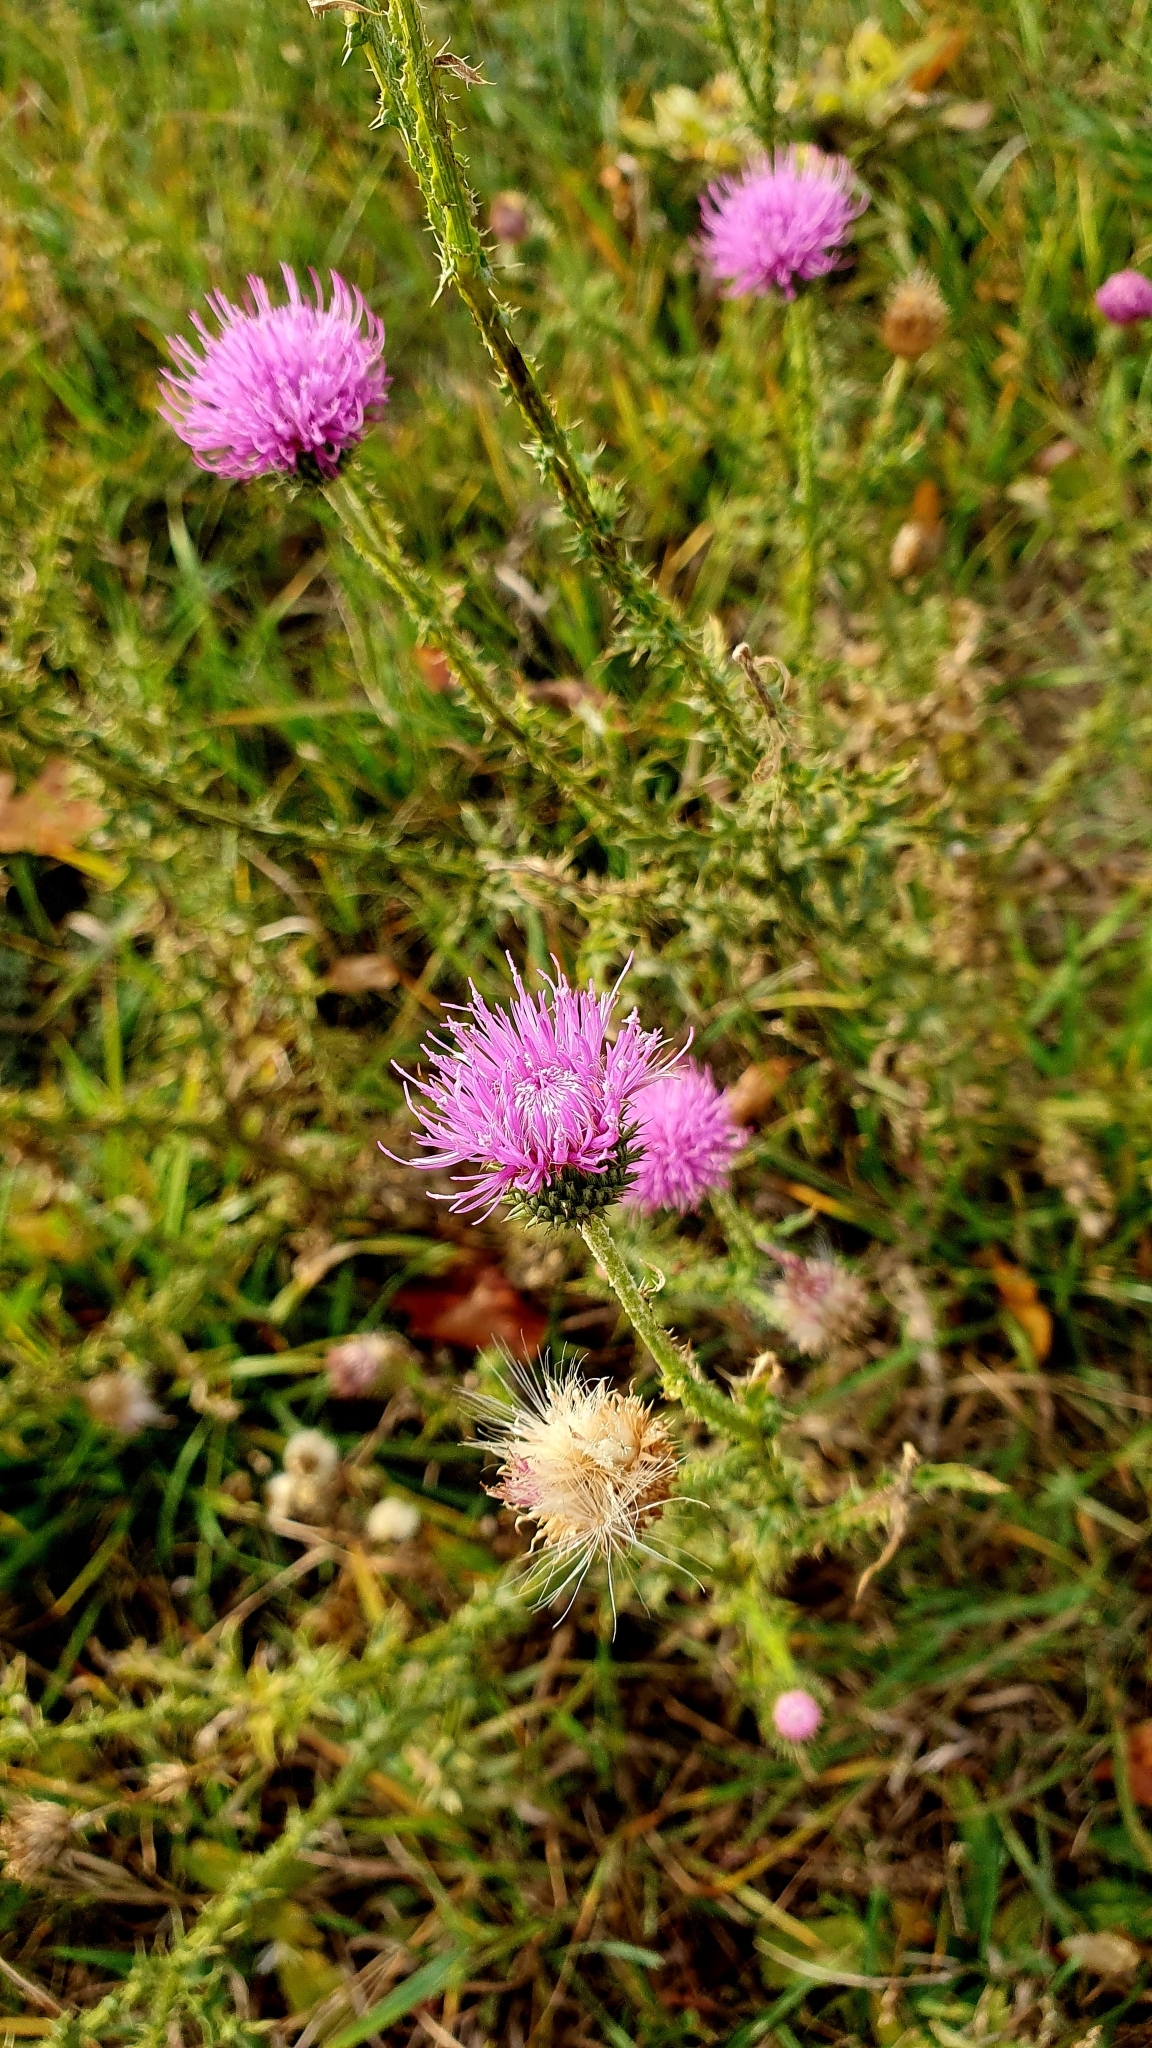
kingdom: Plantae
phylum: Tracheophyta
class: Magnoliopsida
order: Asterales
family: Asteraceae
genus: Carduus
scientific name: Carduus acanthoides
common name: Plumeless thistle
